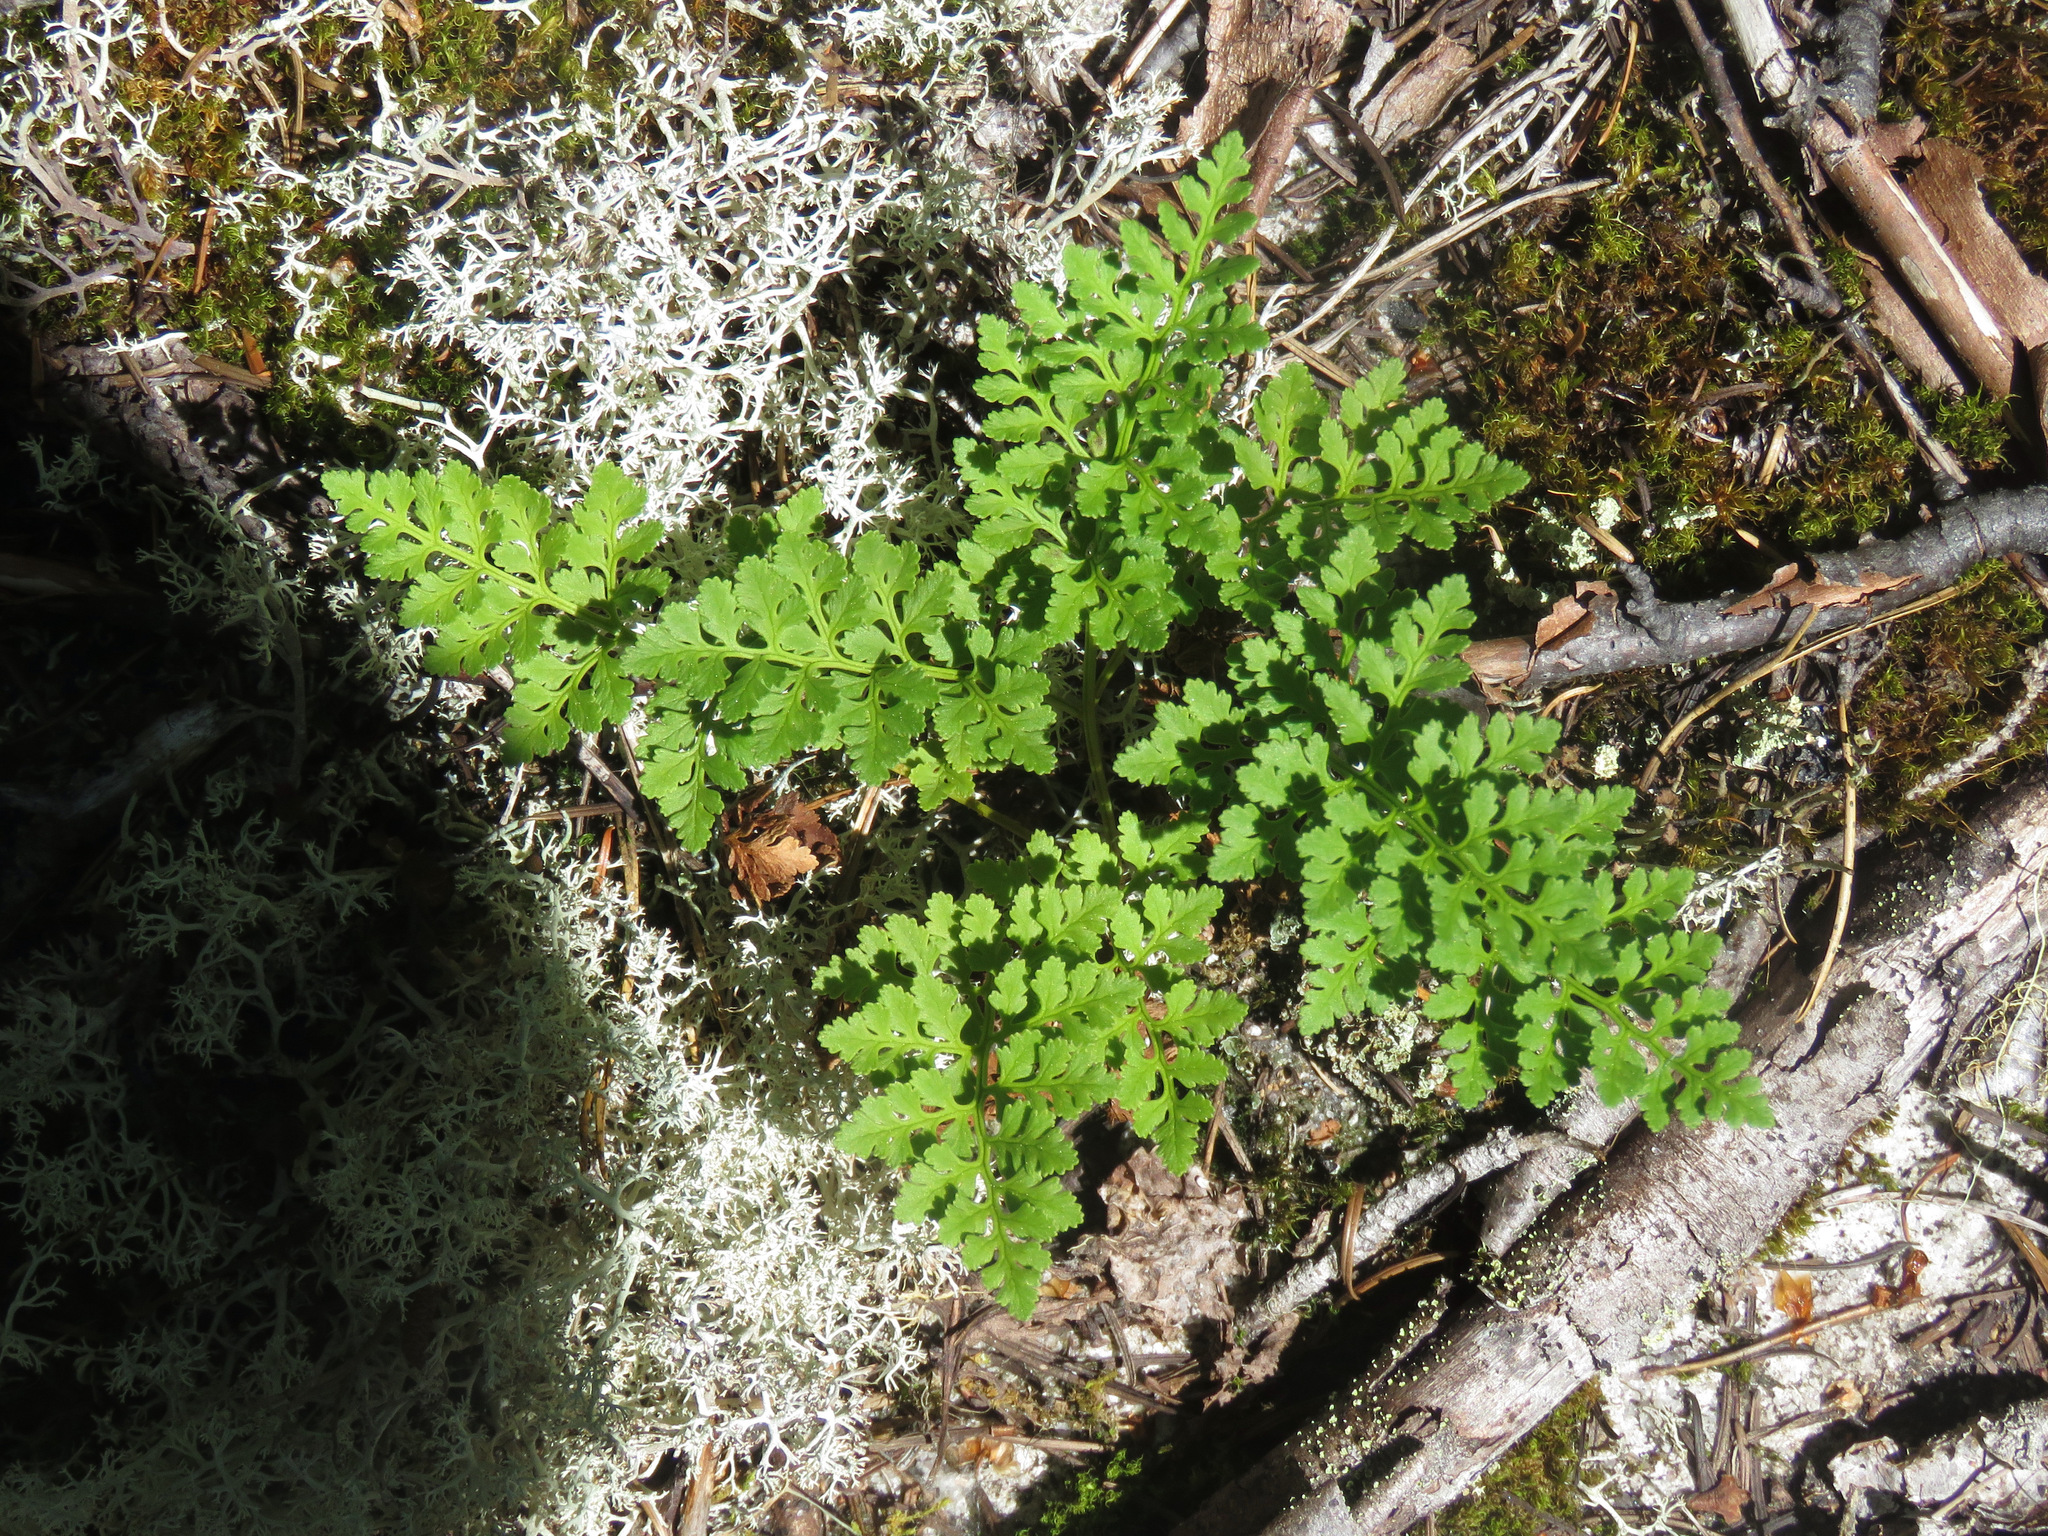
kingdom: Plantae
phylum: Tracheophyta
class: Polypodiopsida
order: Polypodiales
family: Pteridaceae
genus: Cryptogramma
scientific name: Cryptogramma acrostichoides
